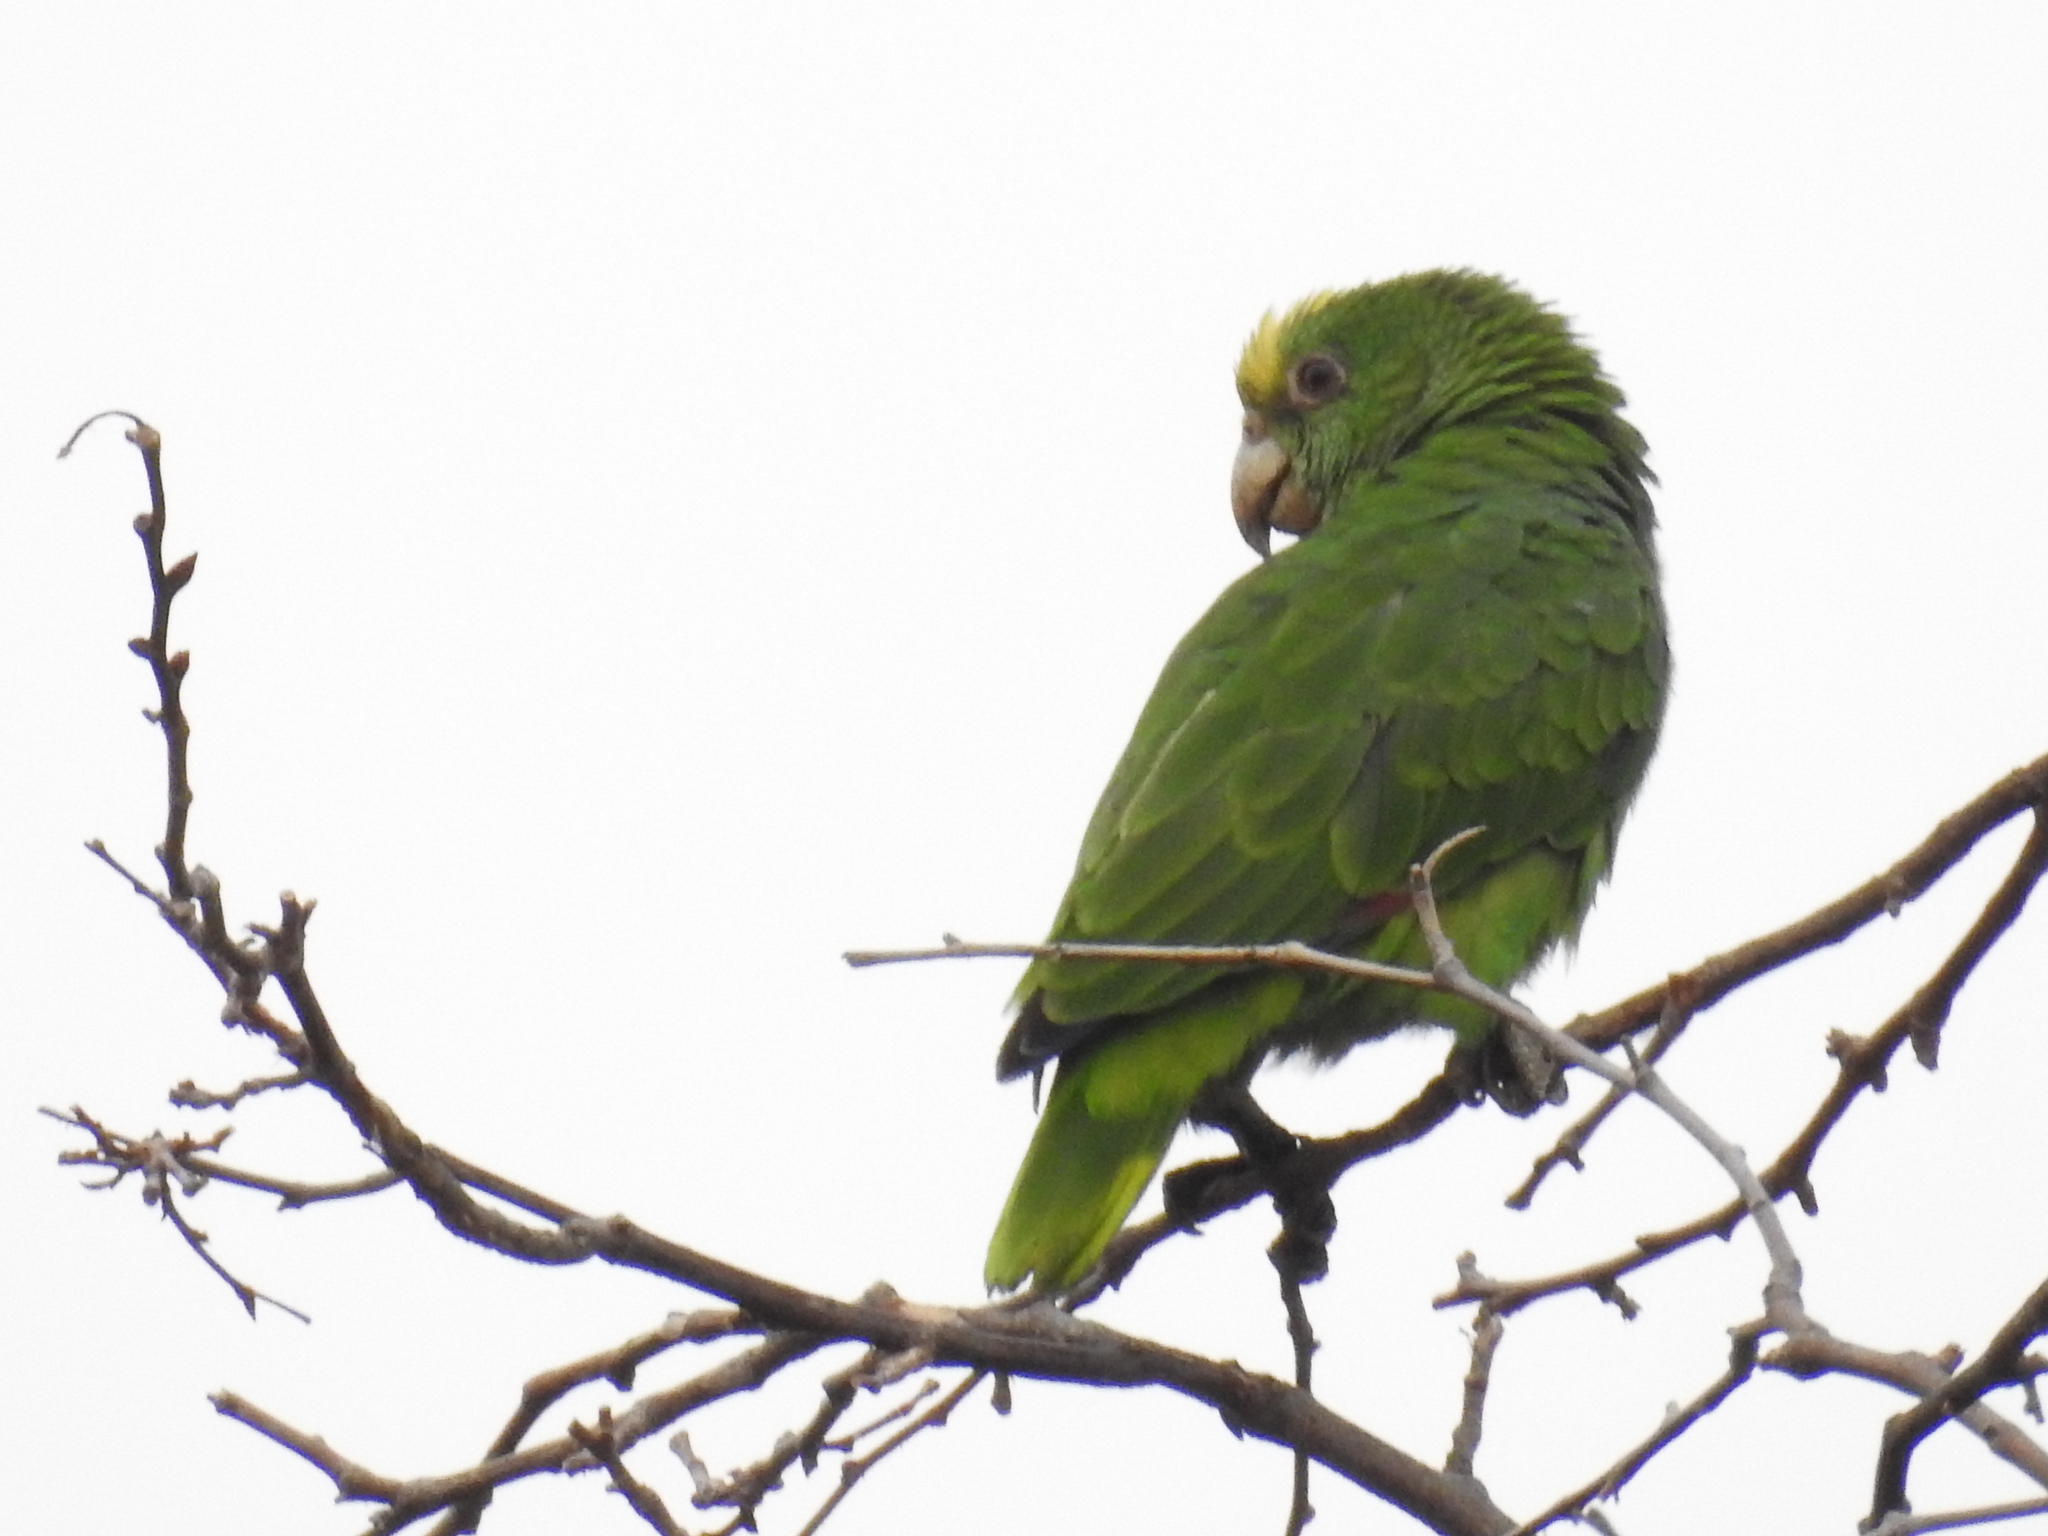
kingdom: Animalia
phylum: Chordata
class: Aves
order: Psittaciformes
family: Psittacidae
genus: Amazona
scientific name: Amazona ochrocephala
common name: Yellow-crowned amazon
